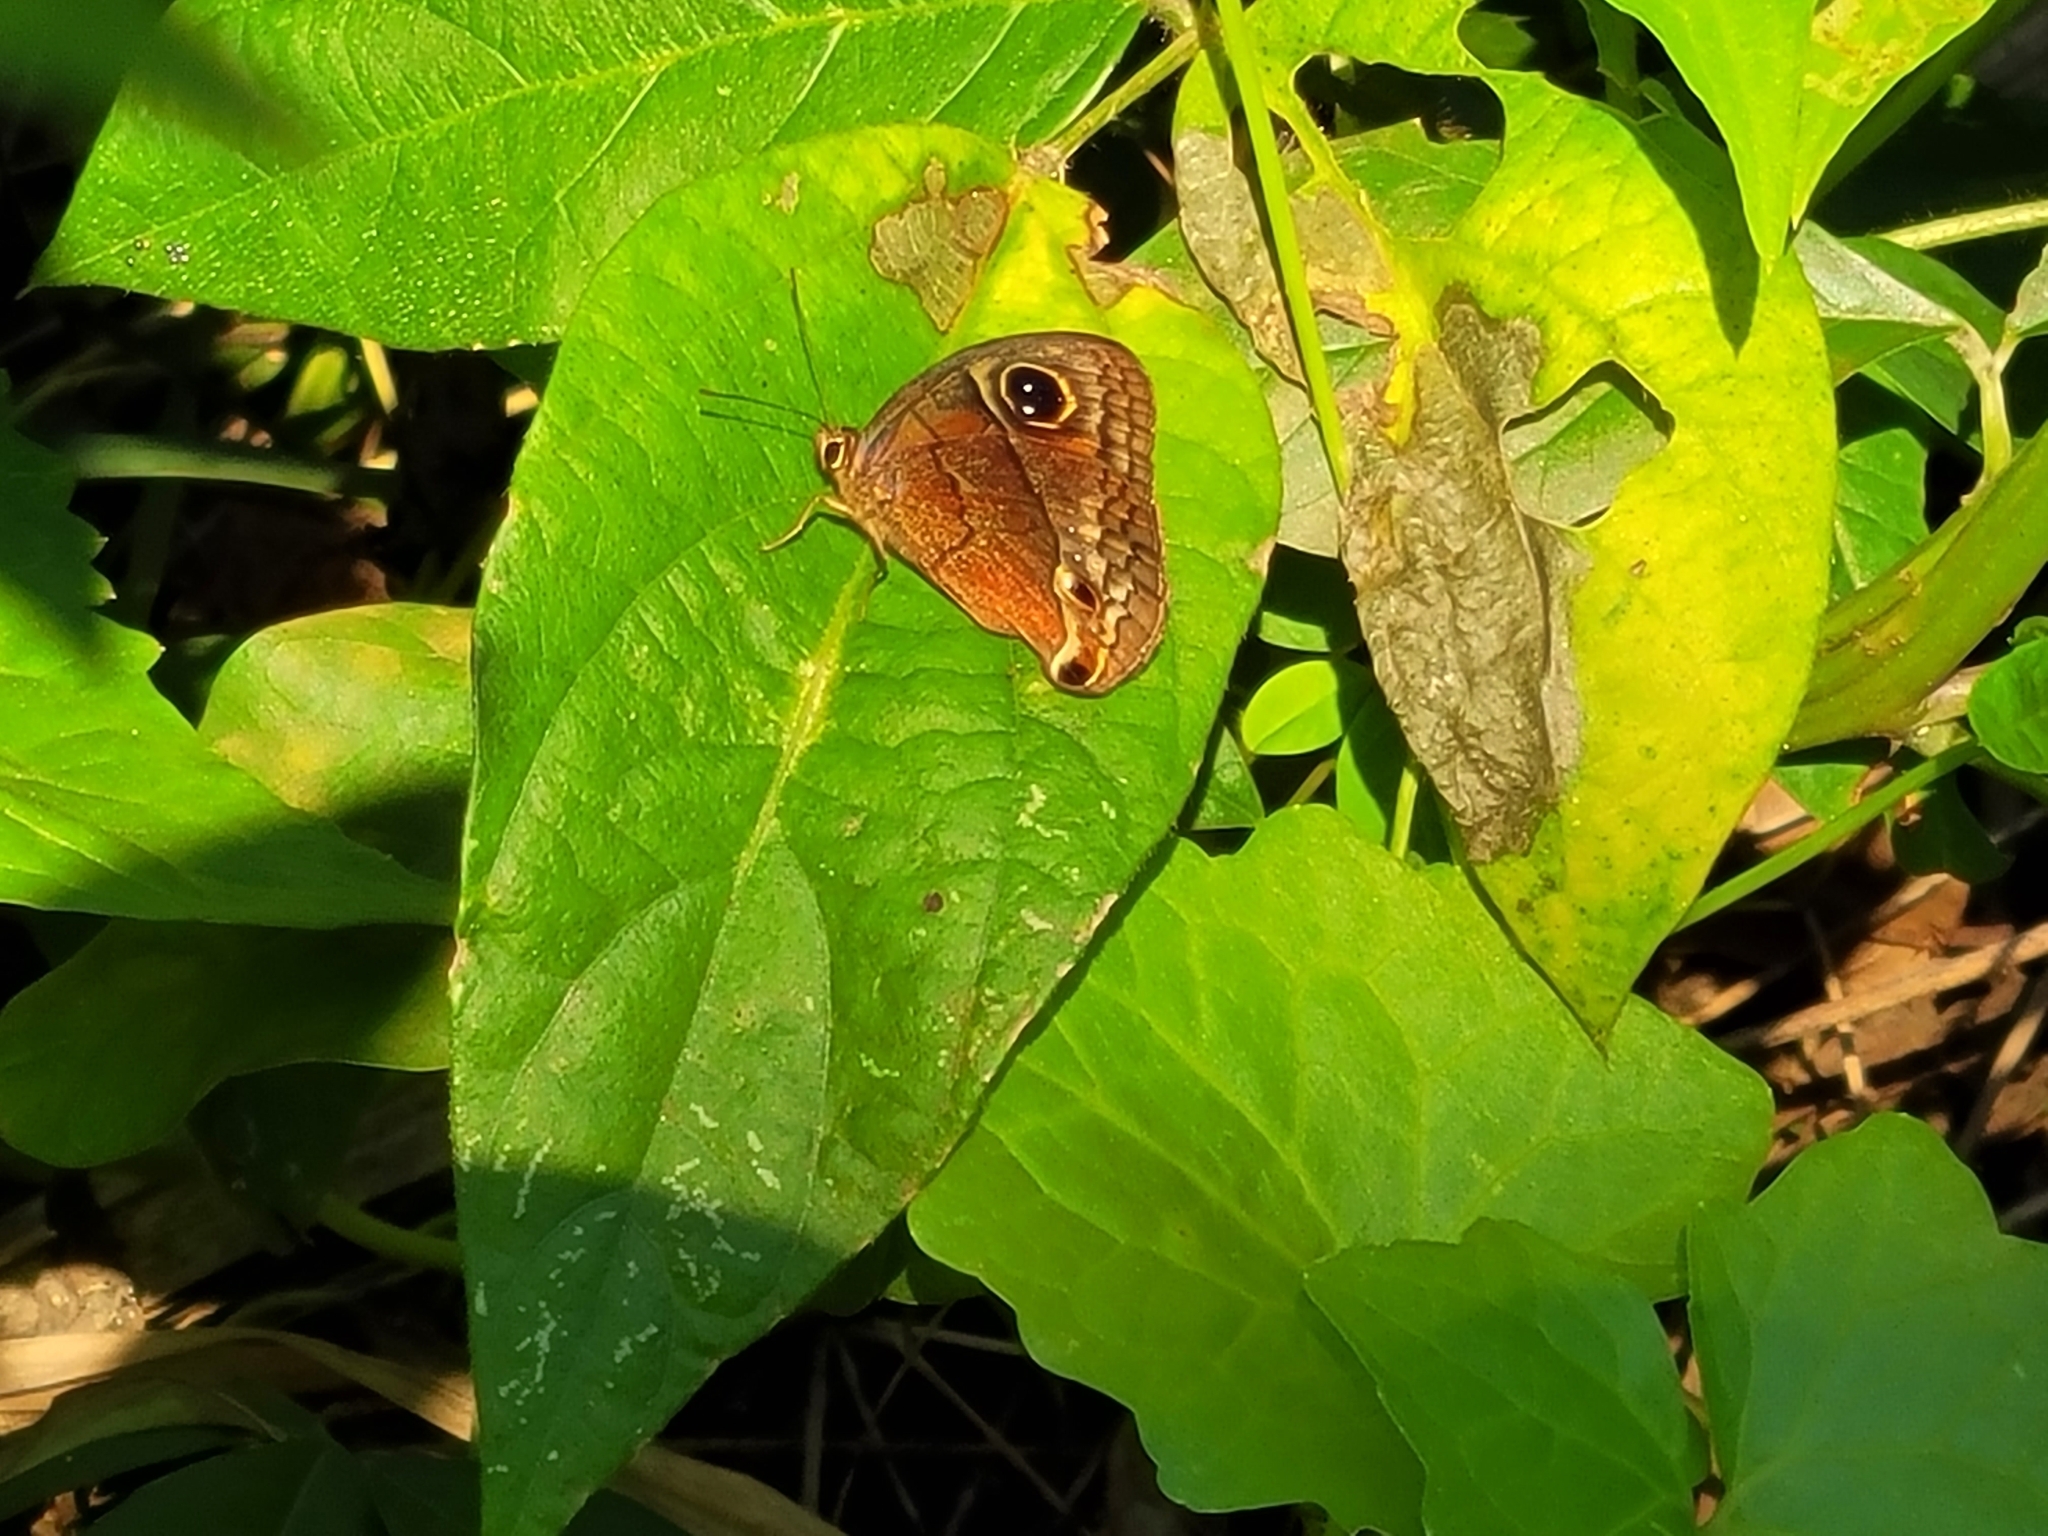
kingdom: Animalia
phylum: Arthropoda
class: Insecta
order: Lepidoptera
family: Nymphalidae
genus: Calisto
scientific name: Calisto nubila
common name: Puerto rican calisto
